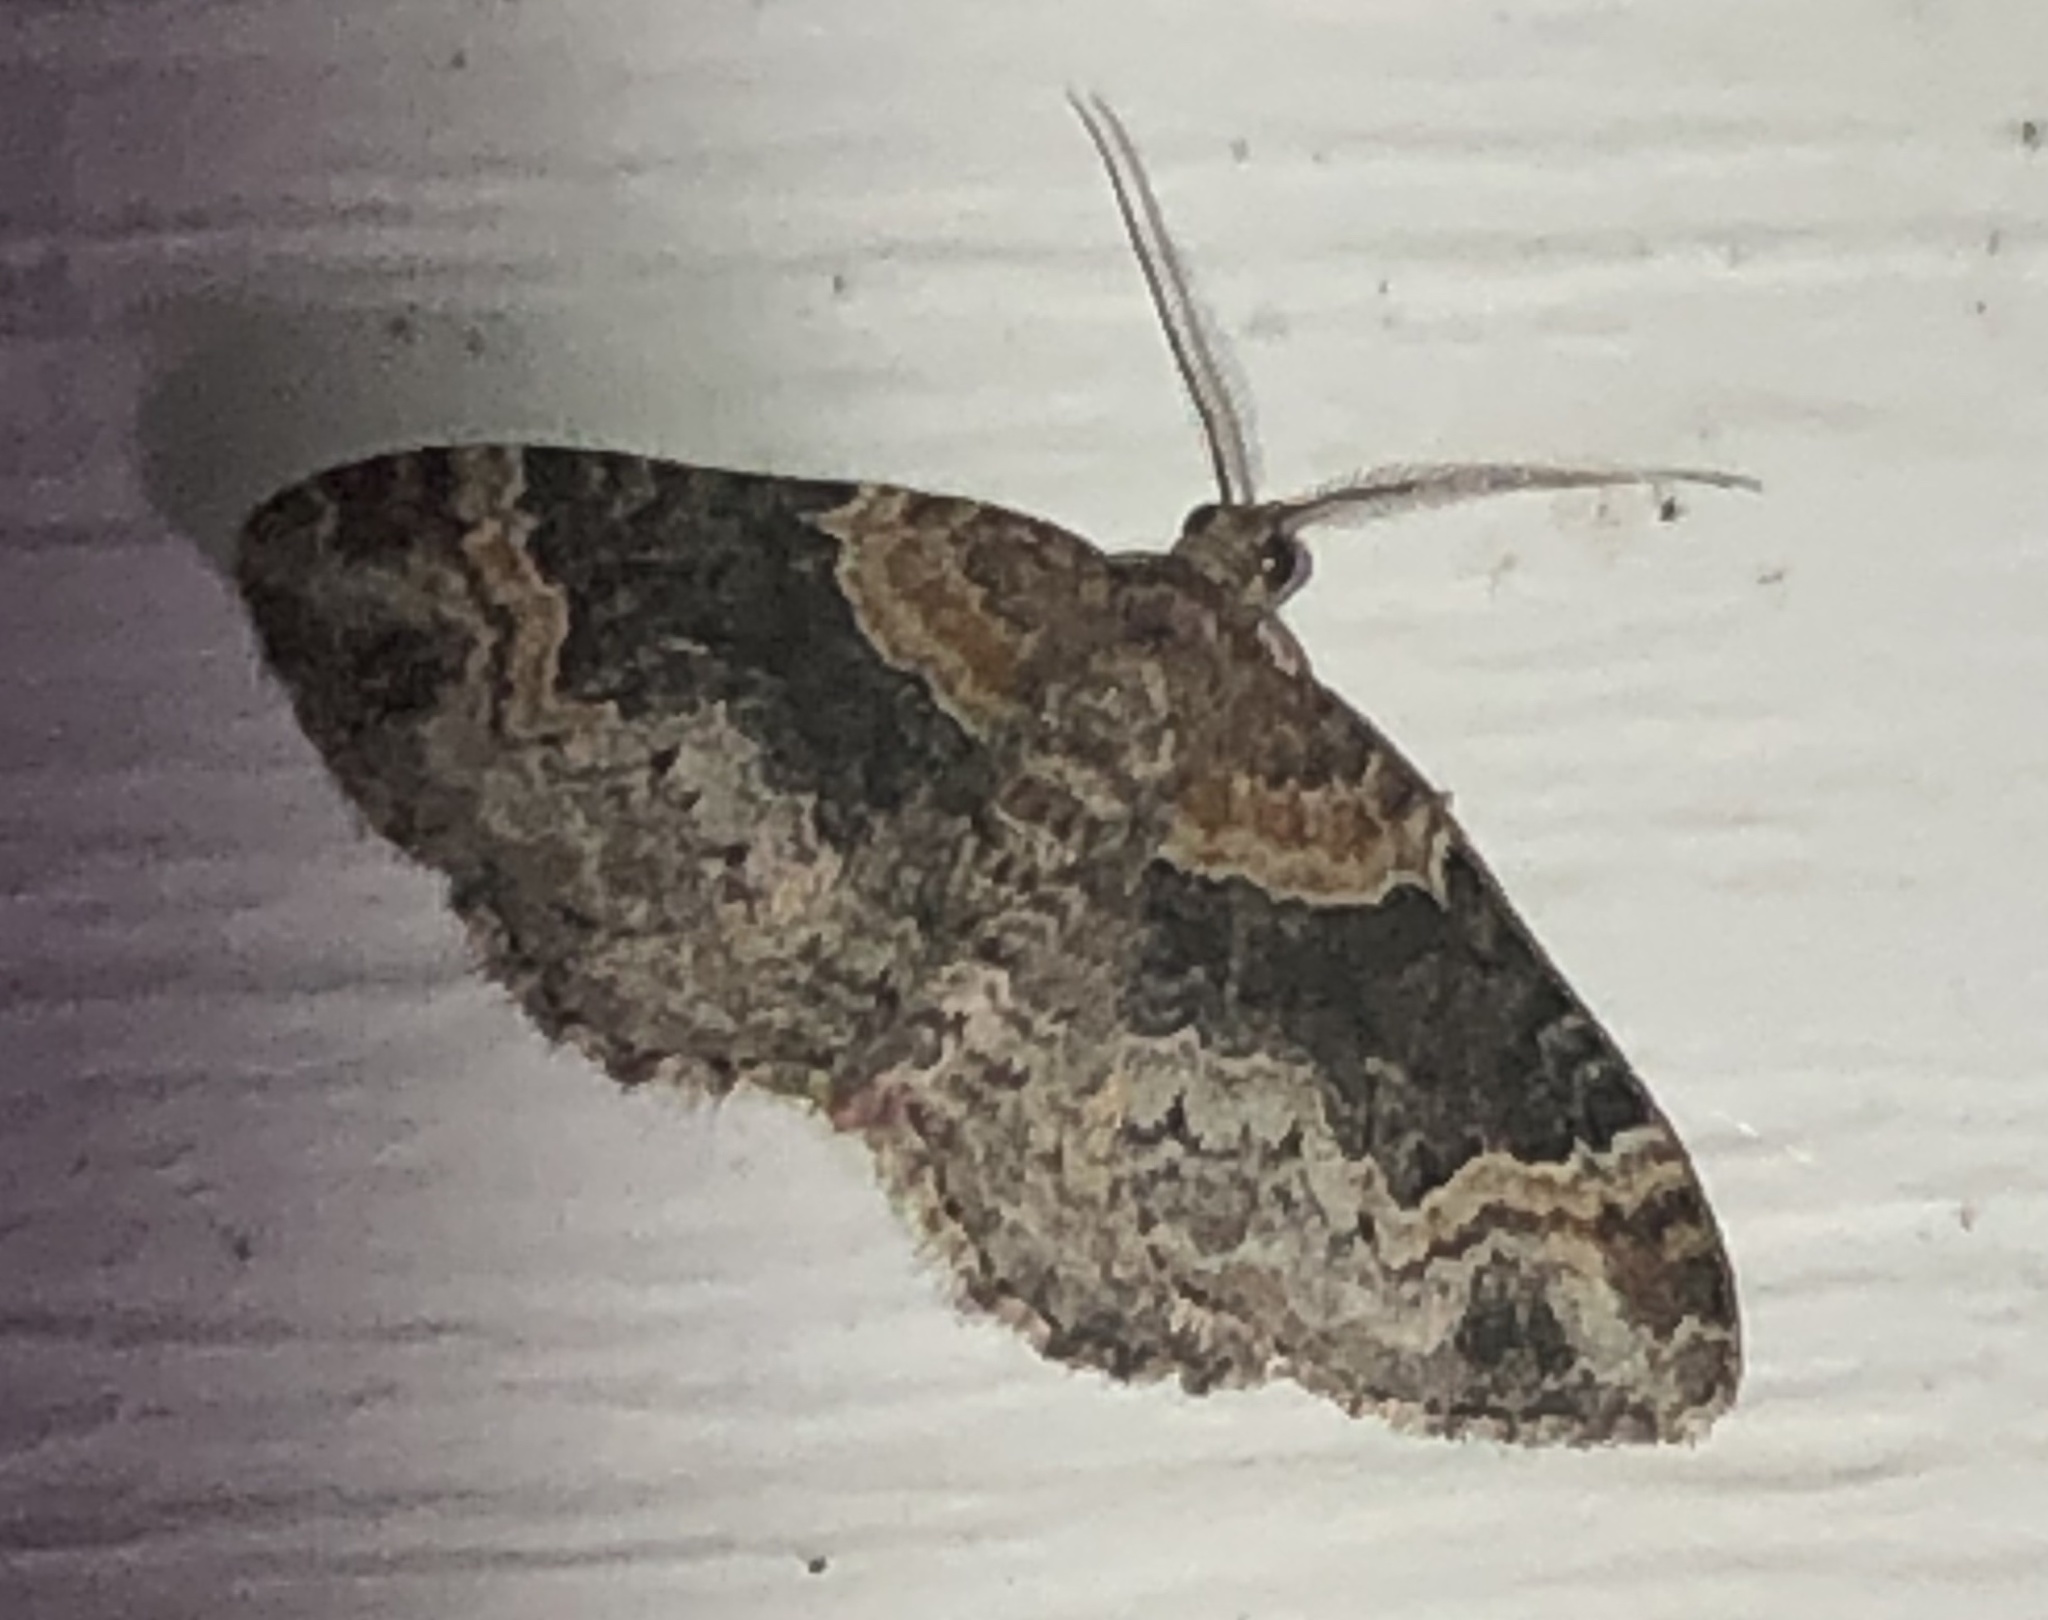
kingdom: Animalia
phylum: Arthropoda
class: Insecta
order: Lepidoptera
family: Geometridae
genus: Xanthorhoe
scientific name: Xanthorhoe ferrugata
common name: Dark-barred twin-spot carpet
